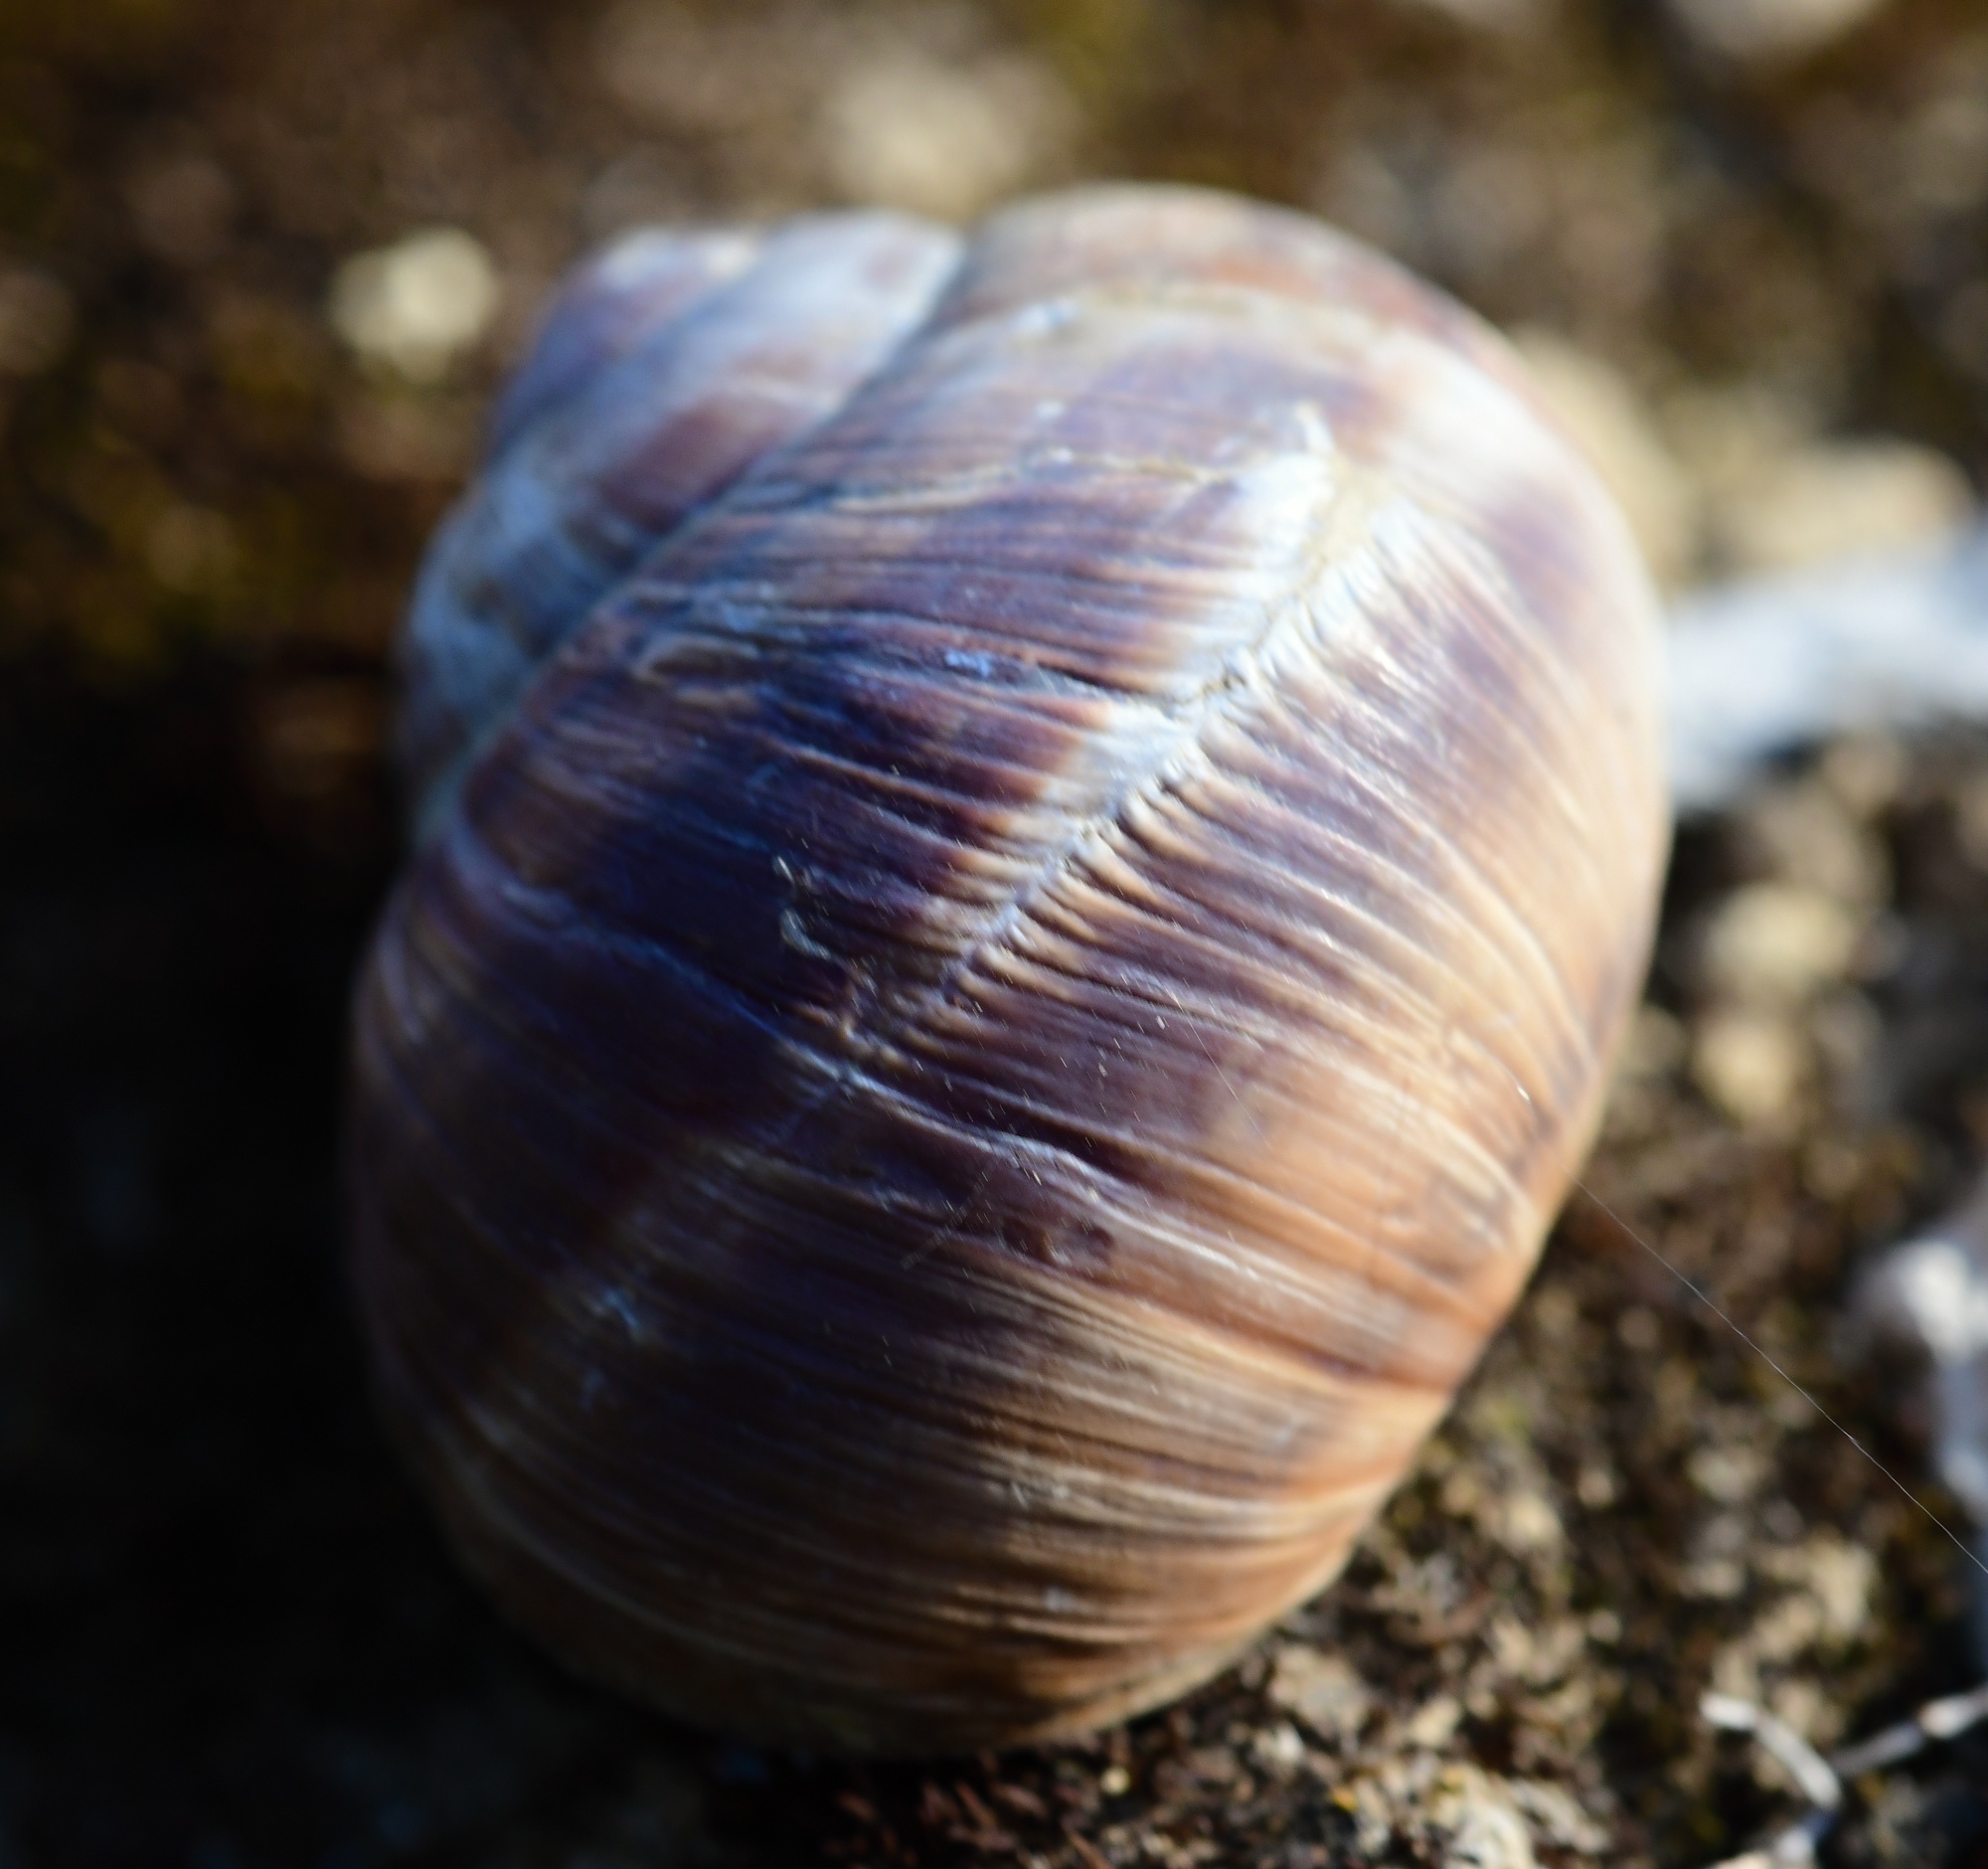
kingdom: Animalia
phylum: Mollusca
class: Gastropoda
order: Stylommatophora
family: Helicidae
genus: Helix
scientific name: Helix borealis
